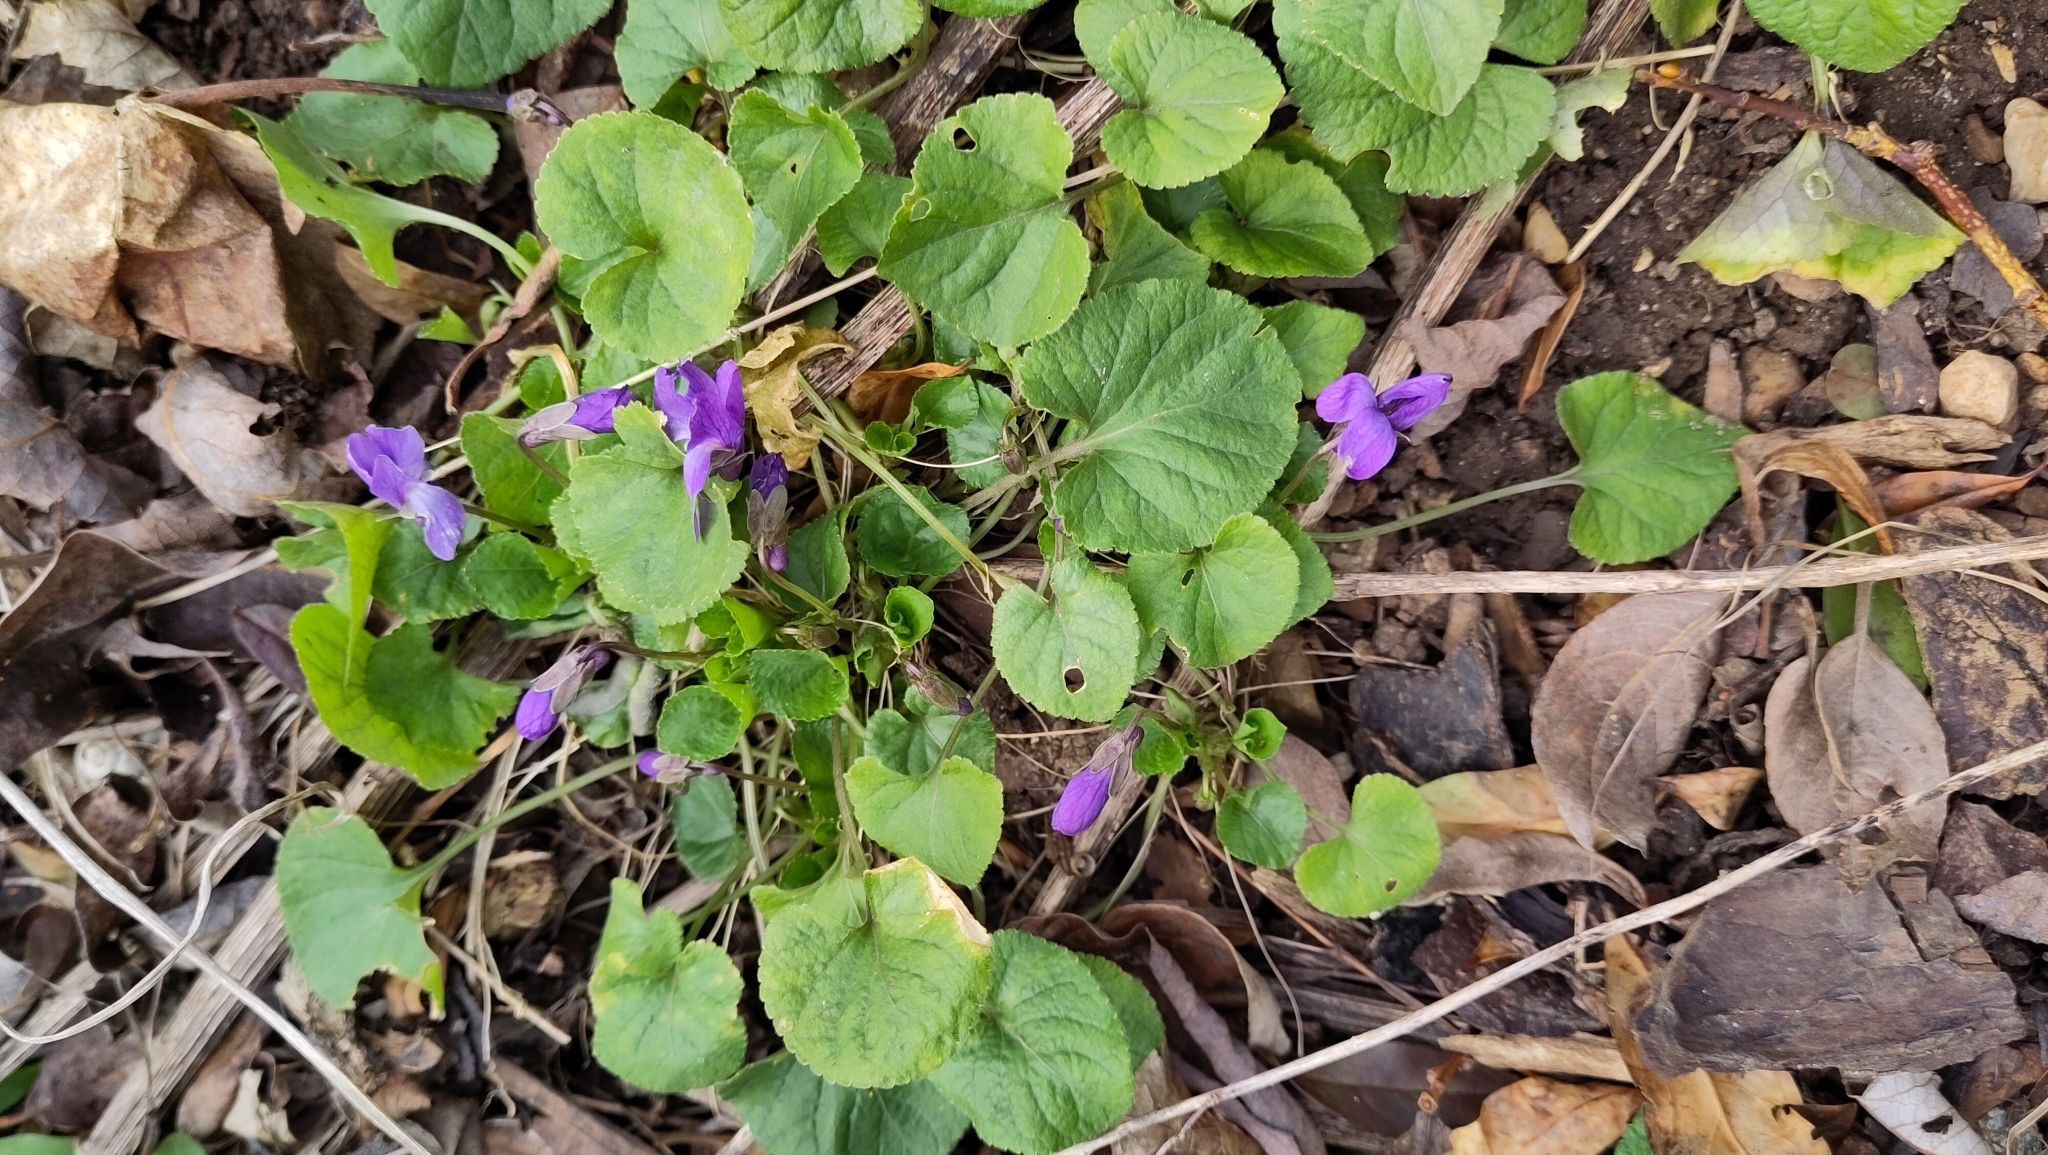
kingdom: Plantae
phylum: Tracheophyta
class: Magnoliopsida
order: Malpighiales
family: Violaceae
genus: Viola
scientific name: Viola odorata
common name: Sweet violet
